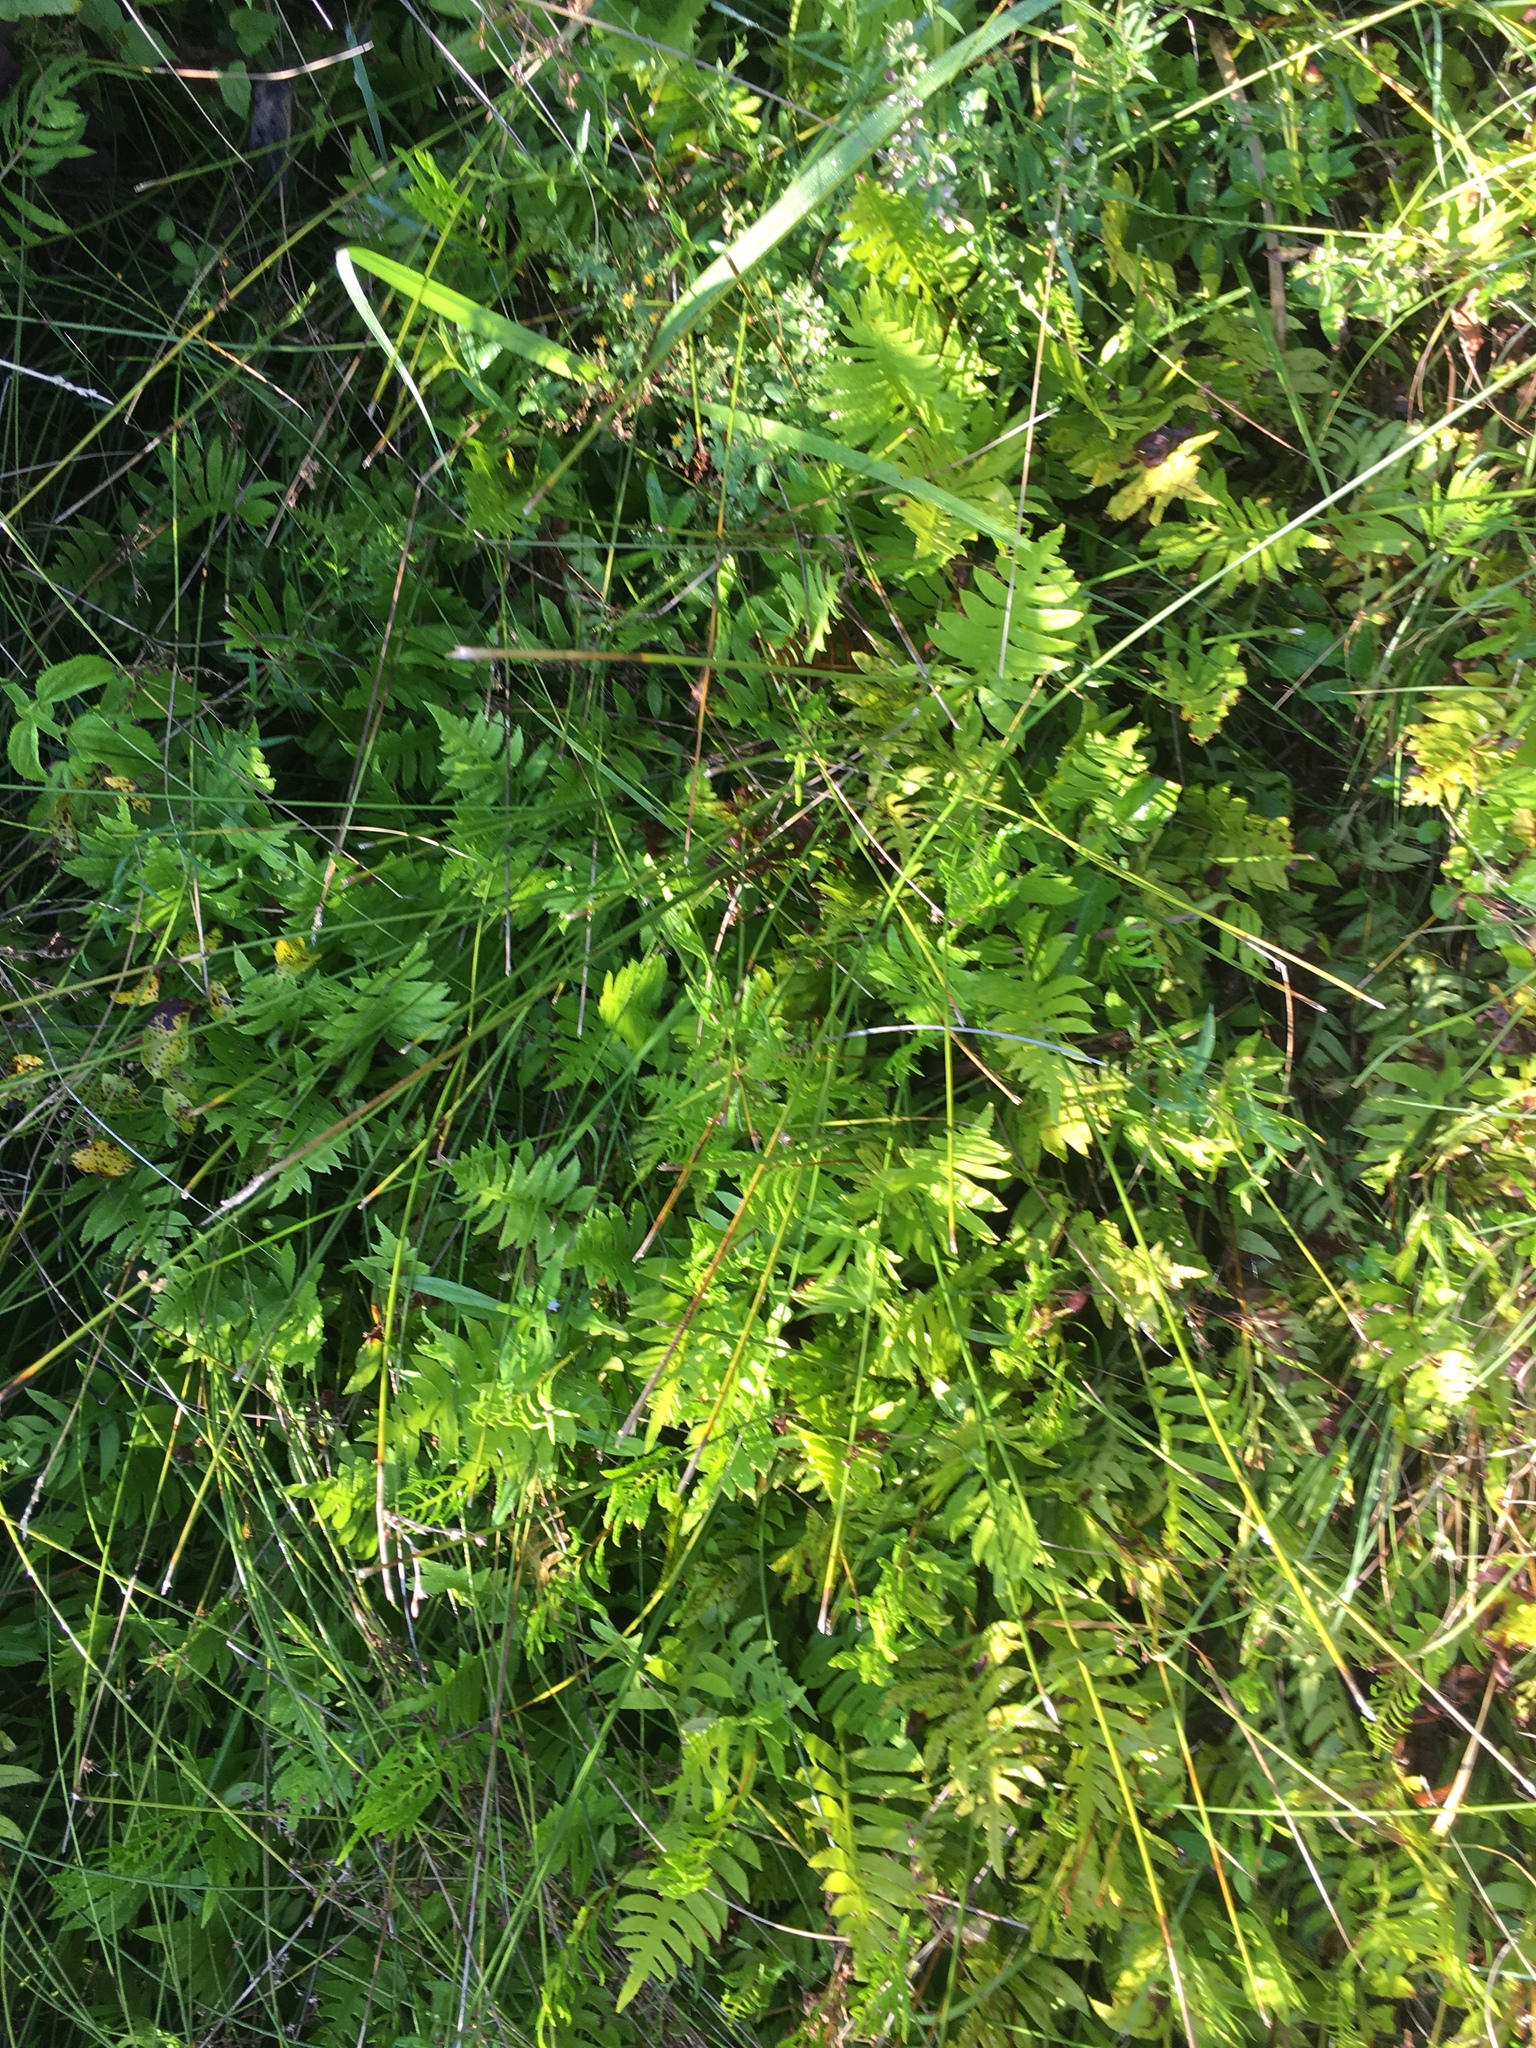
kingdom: Plantae
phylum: Tracheophyta
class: Polypodiopsida
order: Polypodiales
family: Blechnaceae
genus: Lorinseria
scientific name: Lorinseria areolata
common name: Dwarf chain fern
